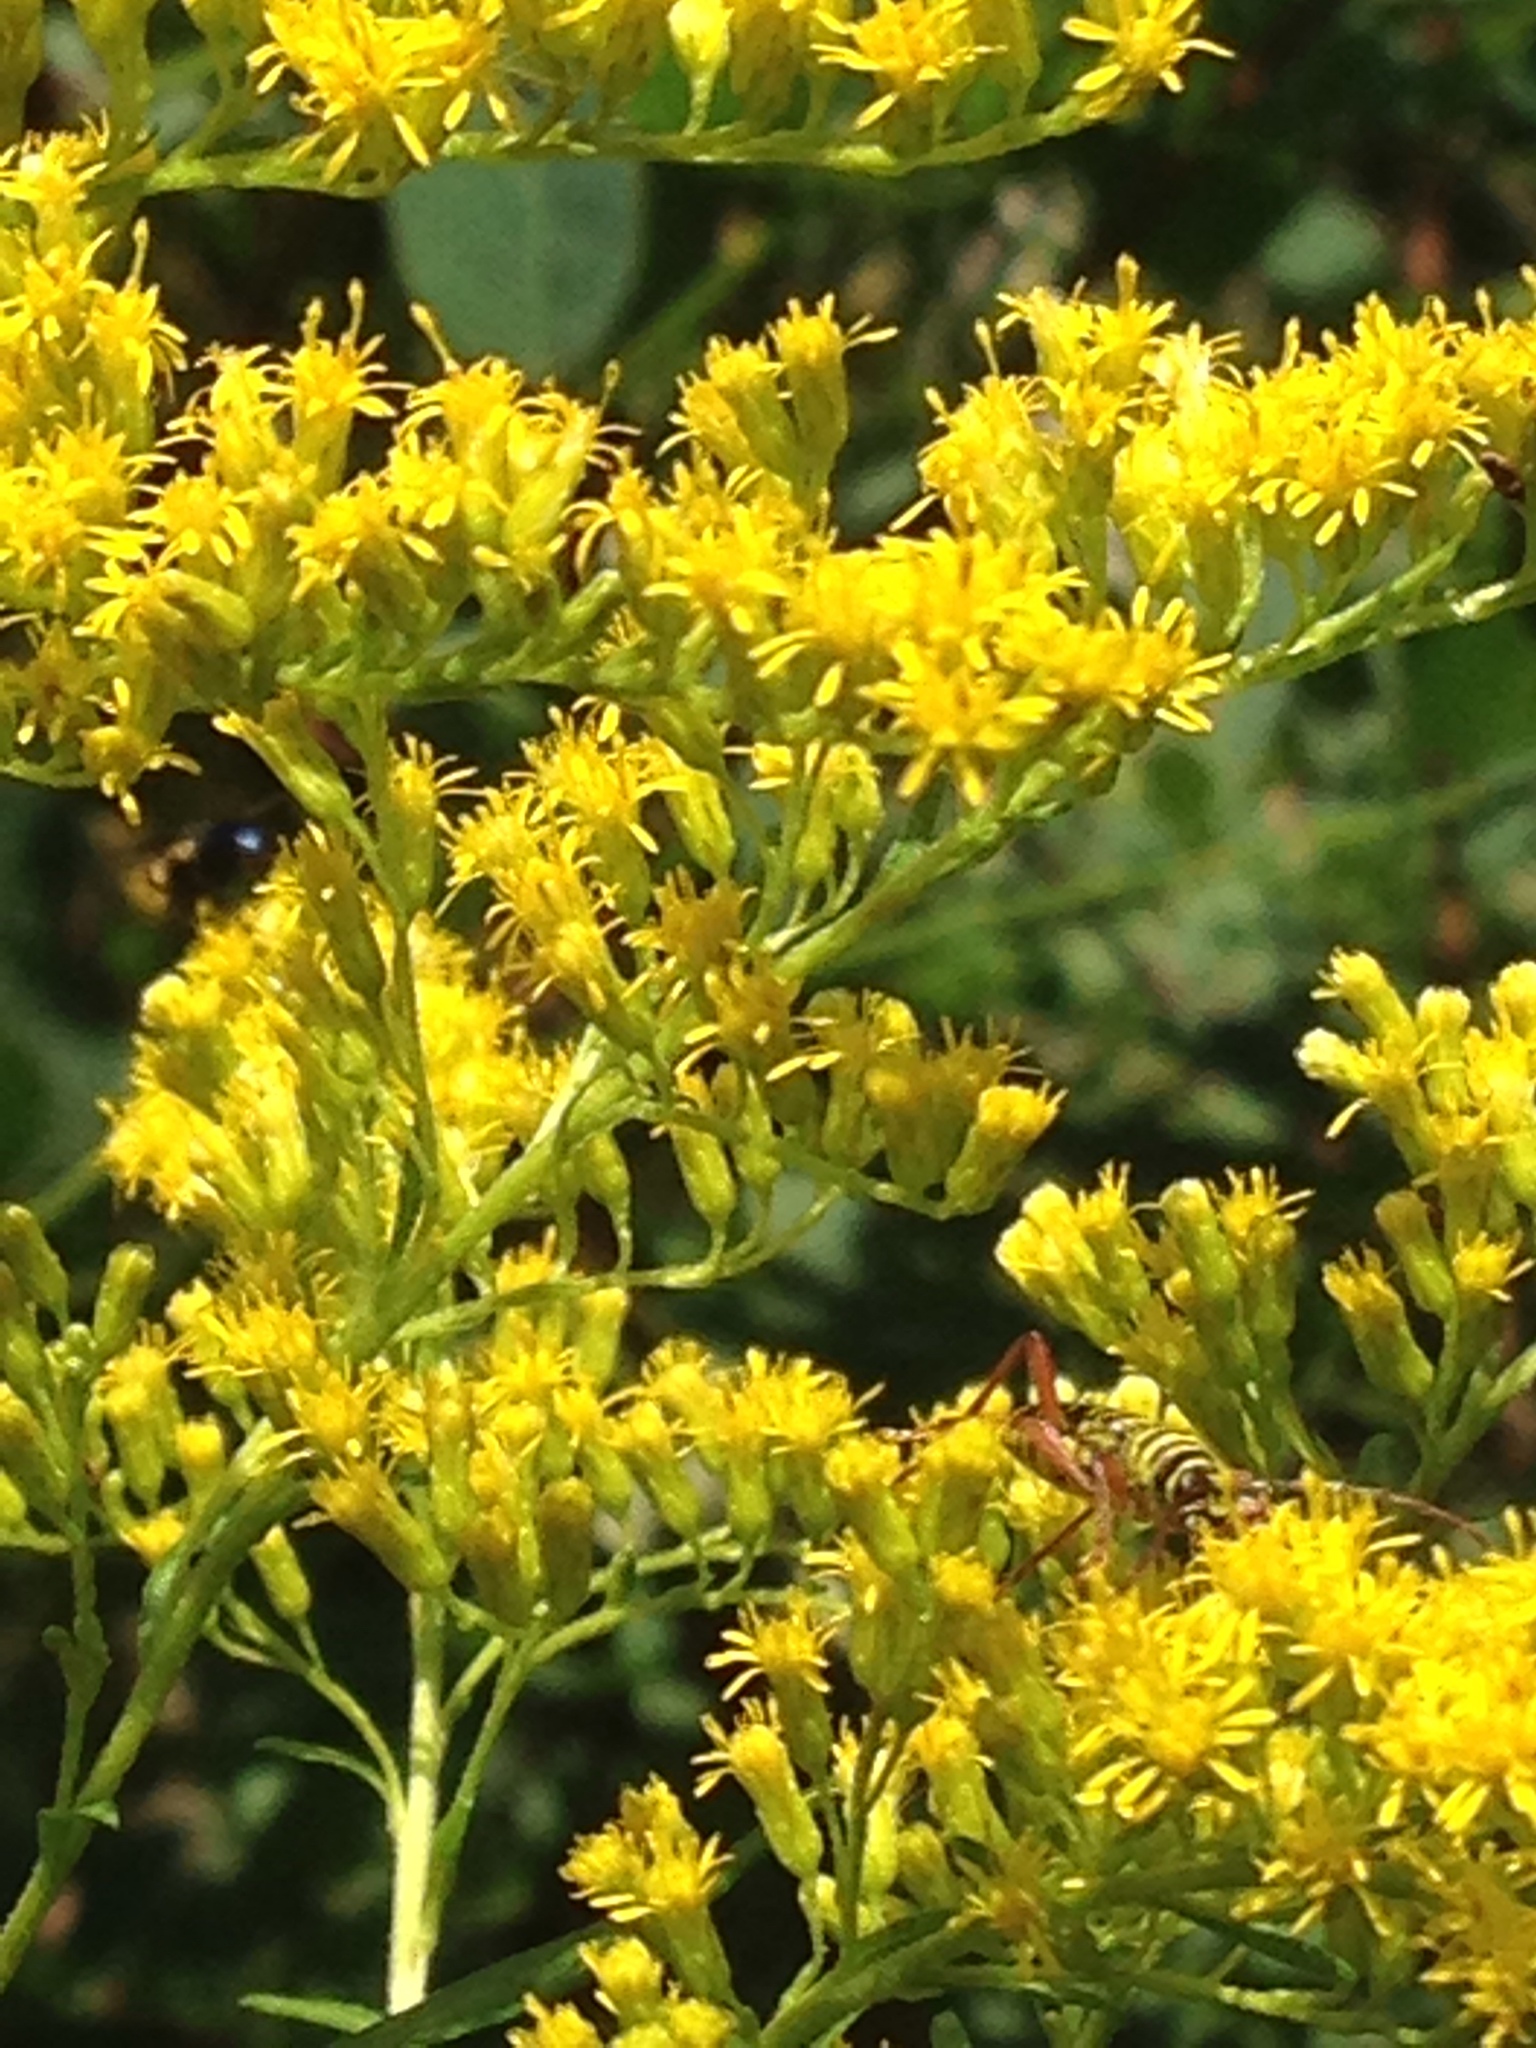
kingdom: Animalia
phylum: Arthropoda
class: Insecta
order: Coleoptera
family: Cerambycidae
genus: Megacyllene
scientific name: Megacyllene robiniae
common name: Locust borer
